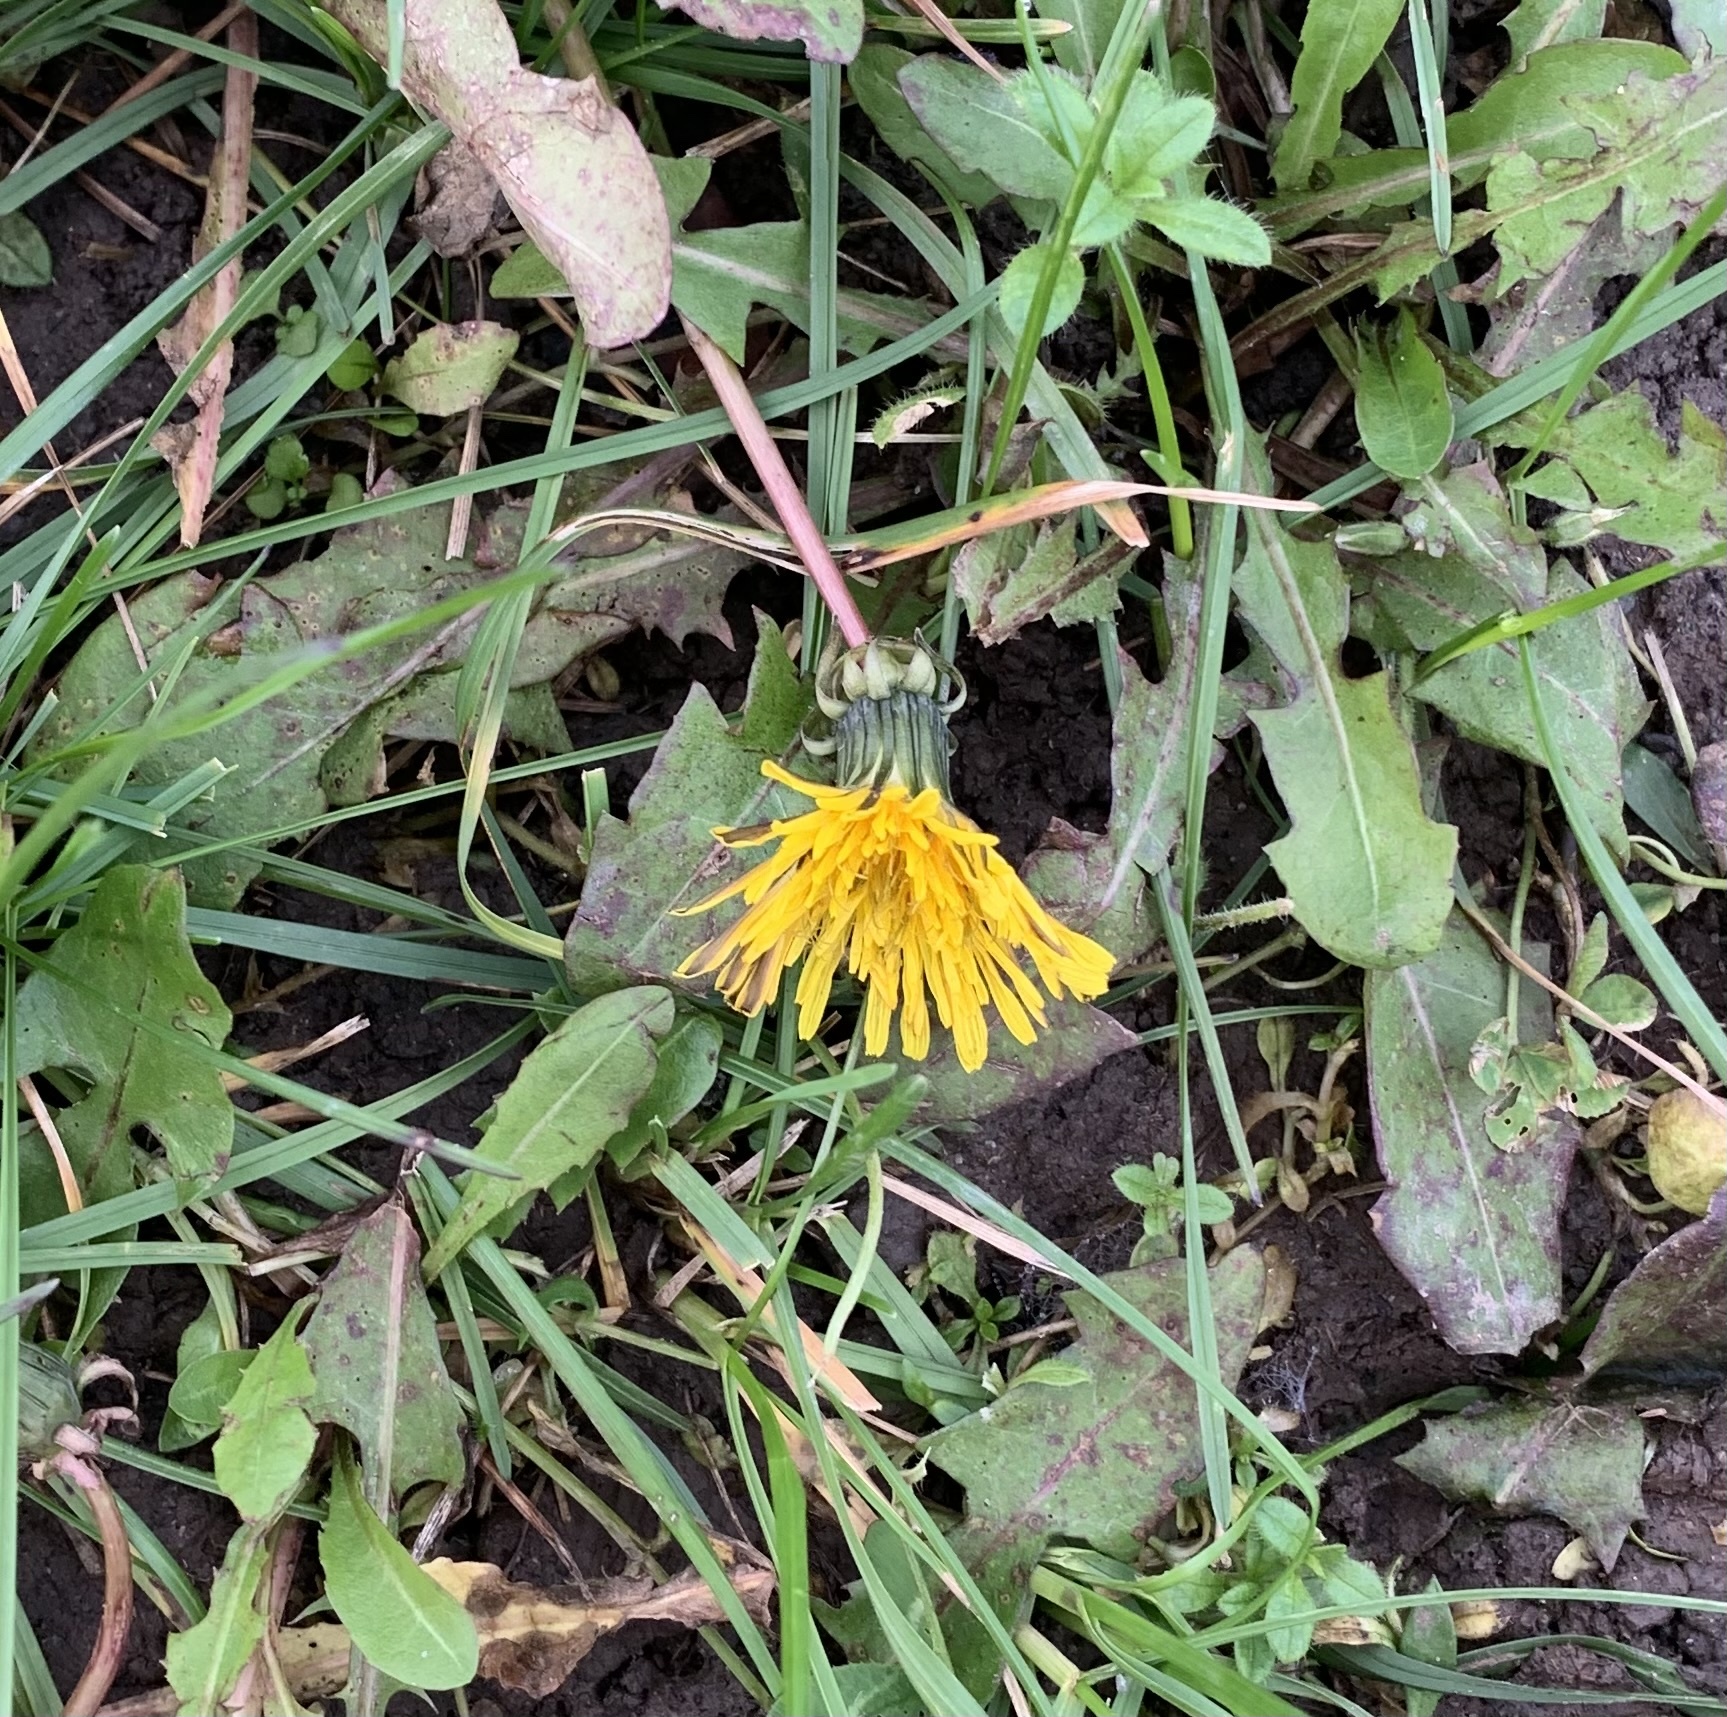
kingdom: Plantae
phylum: Tracheophyta
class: Magnoliopsida
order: Asterales
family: Asteraceae
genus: Taraxacum
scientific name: Taraxacum officinale
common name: Common dandelion
